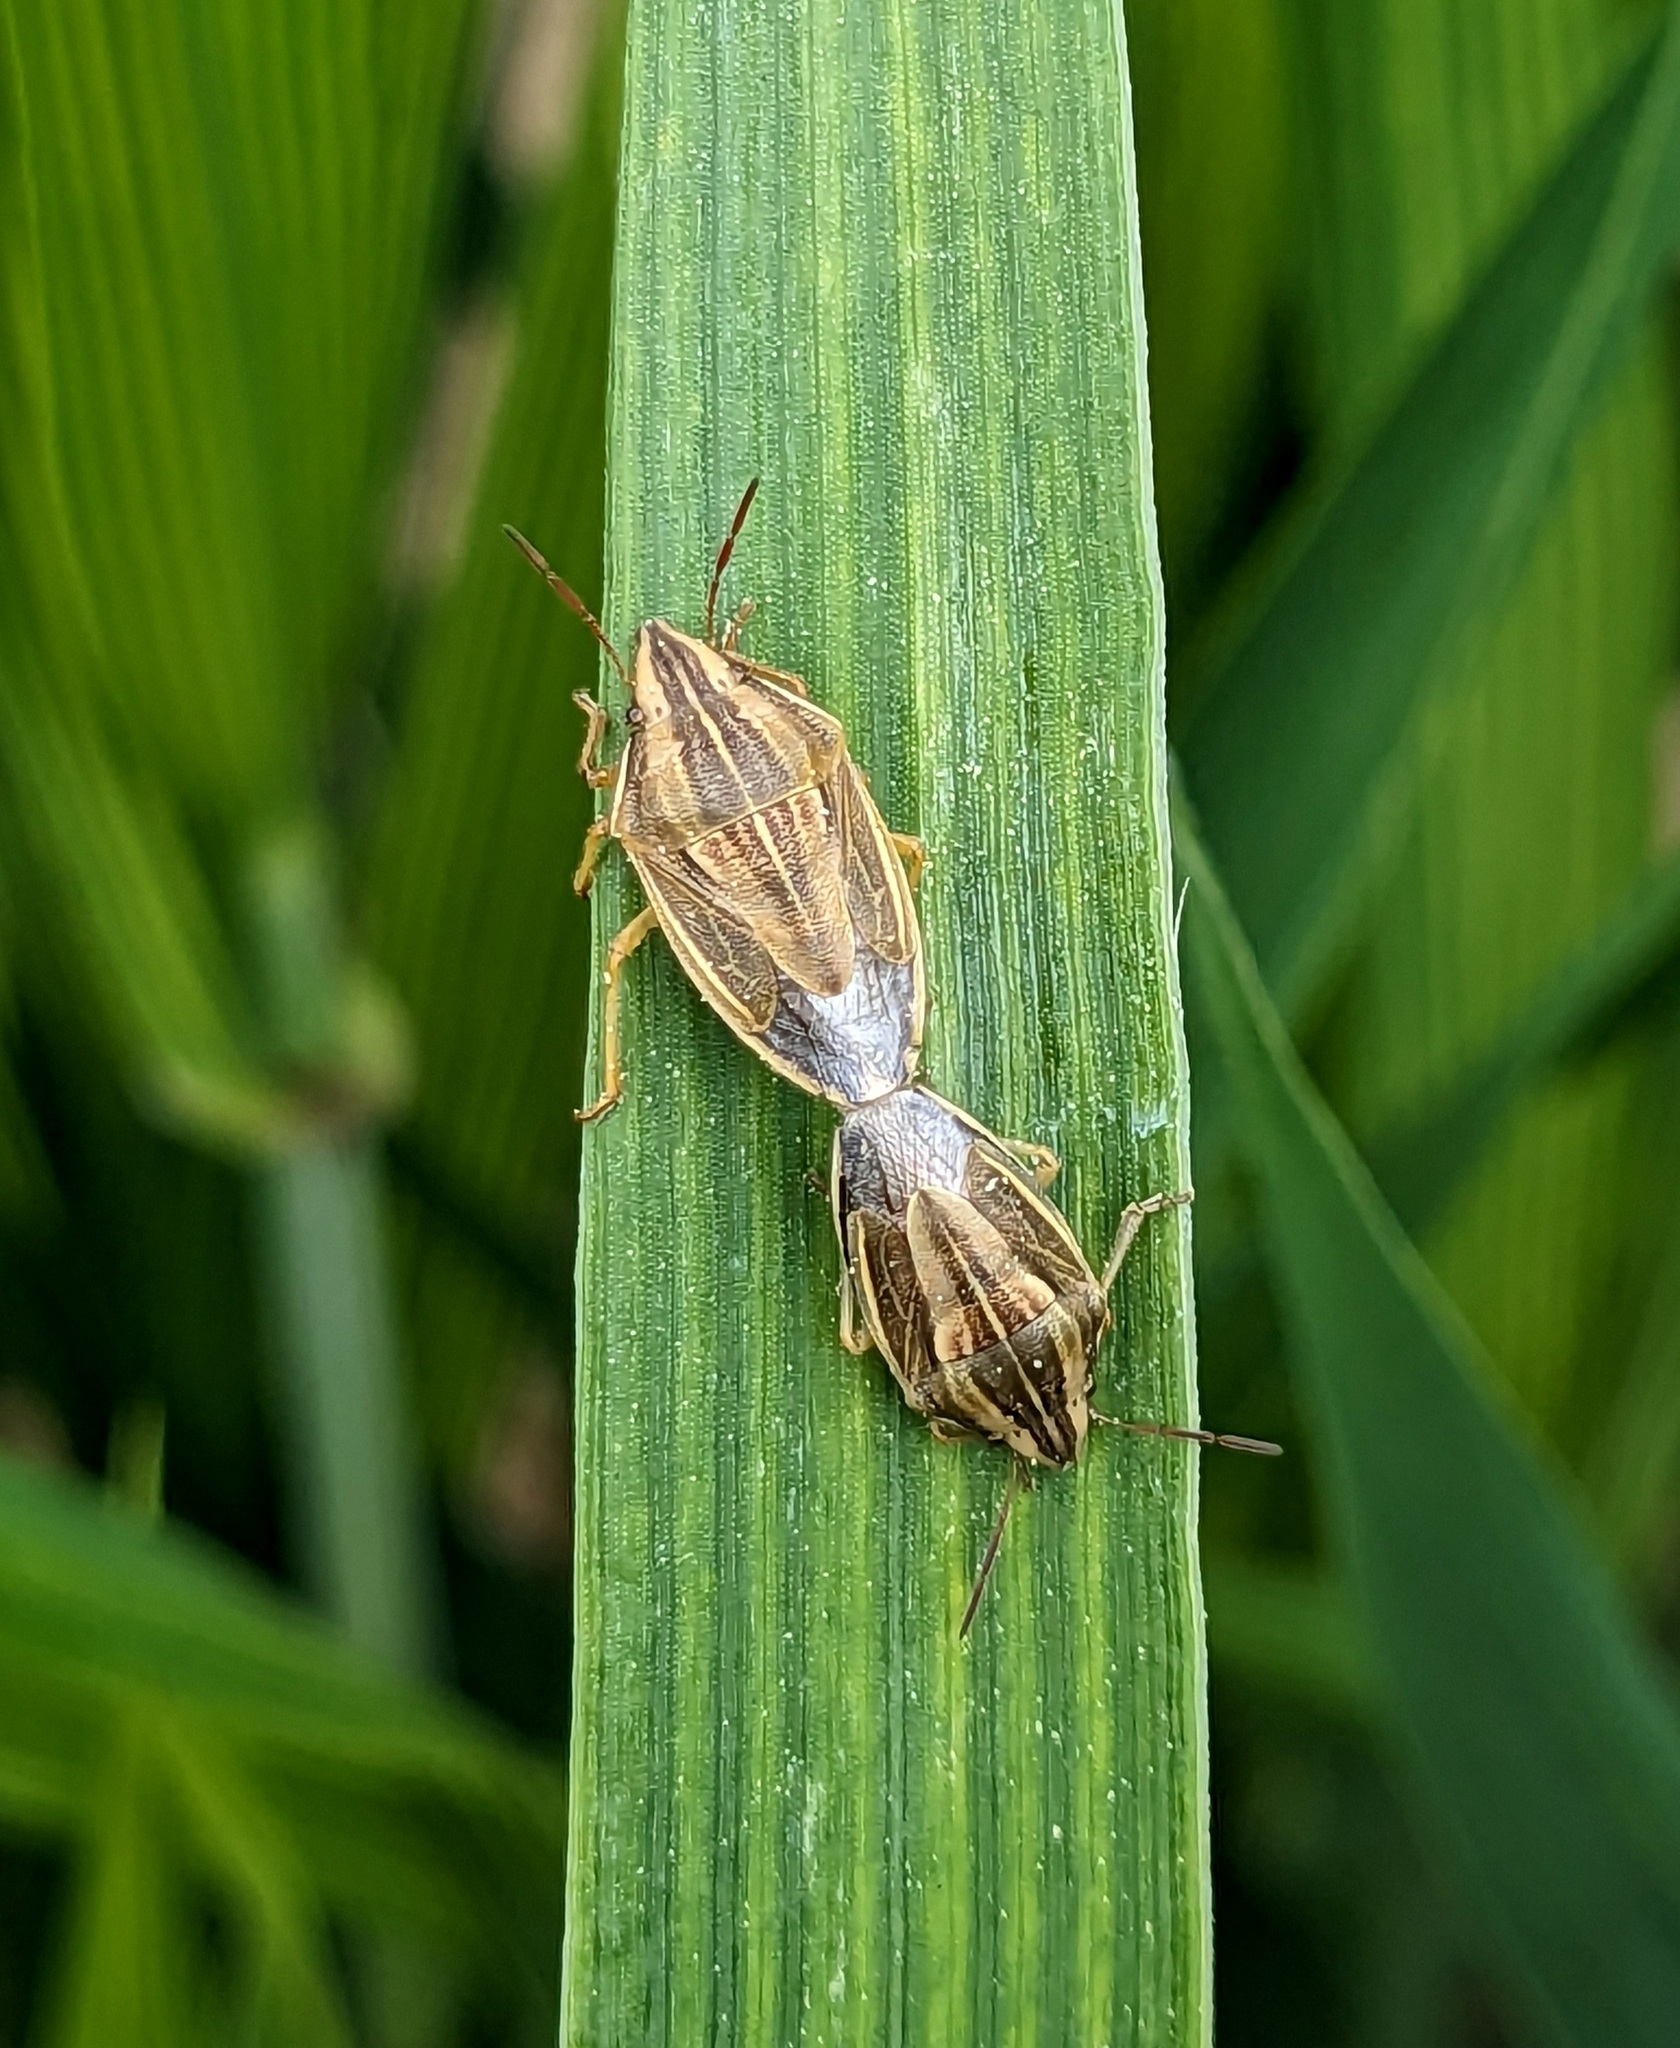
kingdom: Animalia
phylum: Arthropoda
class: Insecta
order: Hemiptera
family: Pentatomidae
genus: Aelia
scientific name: Aelia acuminata
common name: Bishop's mitre
